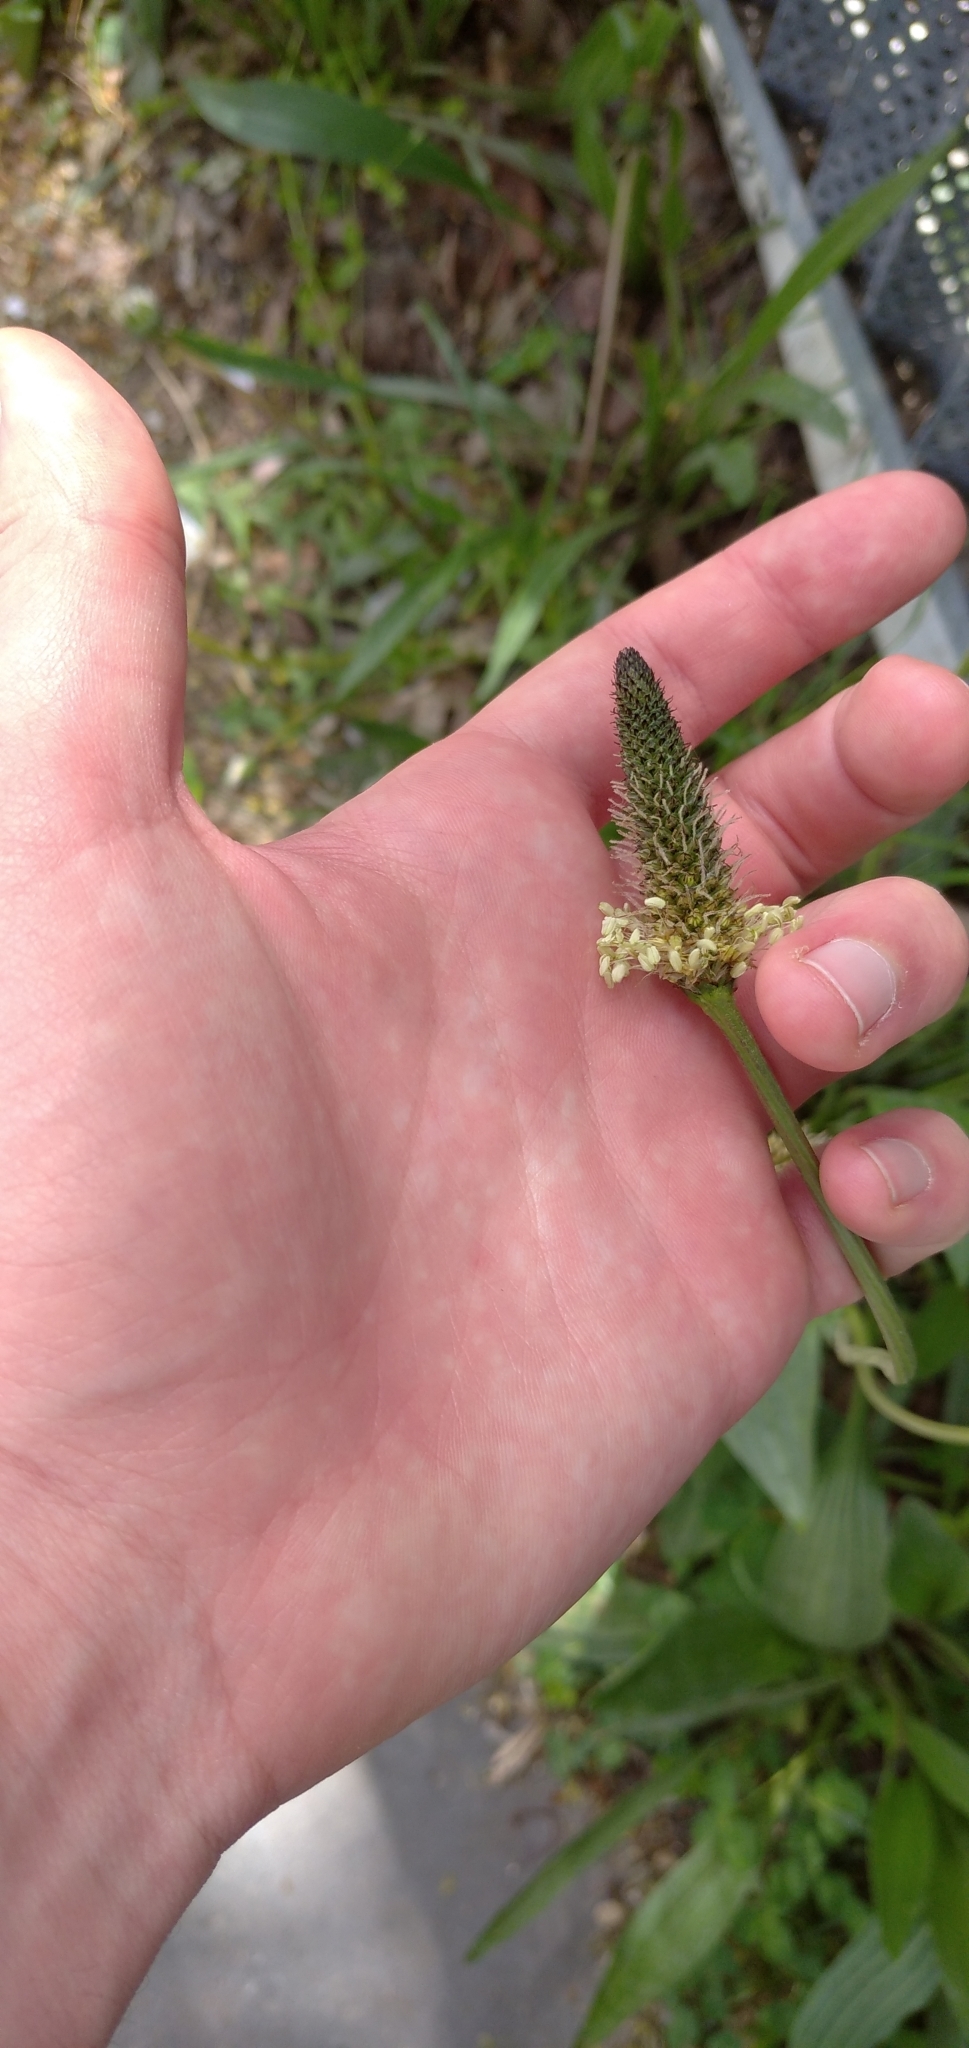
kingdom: Plantae
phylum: Tracheophyta
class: Magnoliopsida
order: Lamiales
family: Plantaginaceae
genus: Plantago
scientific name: Plantago lanceolata
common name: Ribwort plantain
